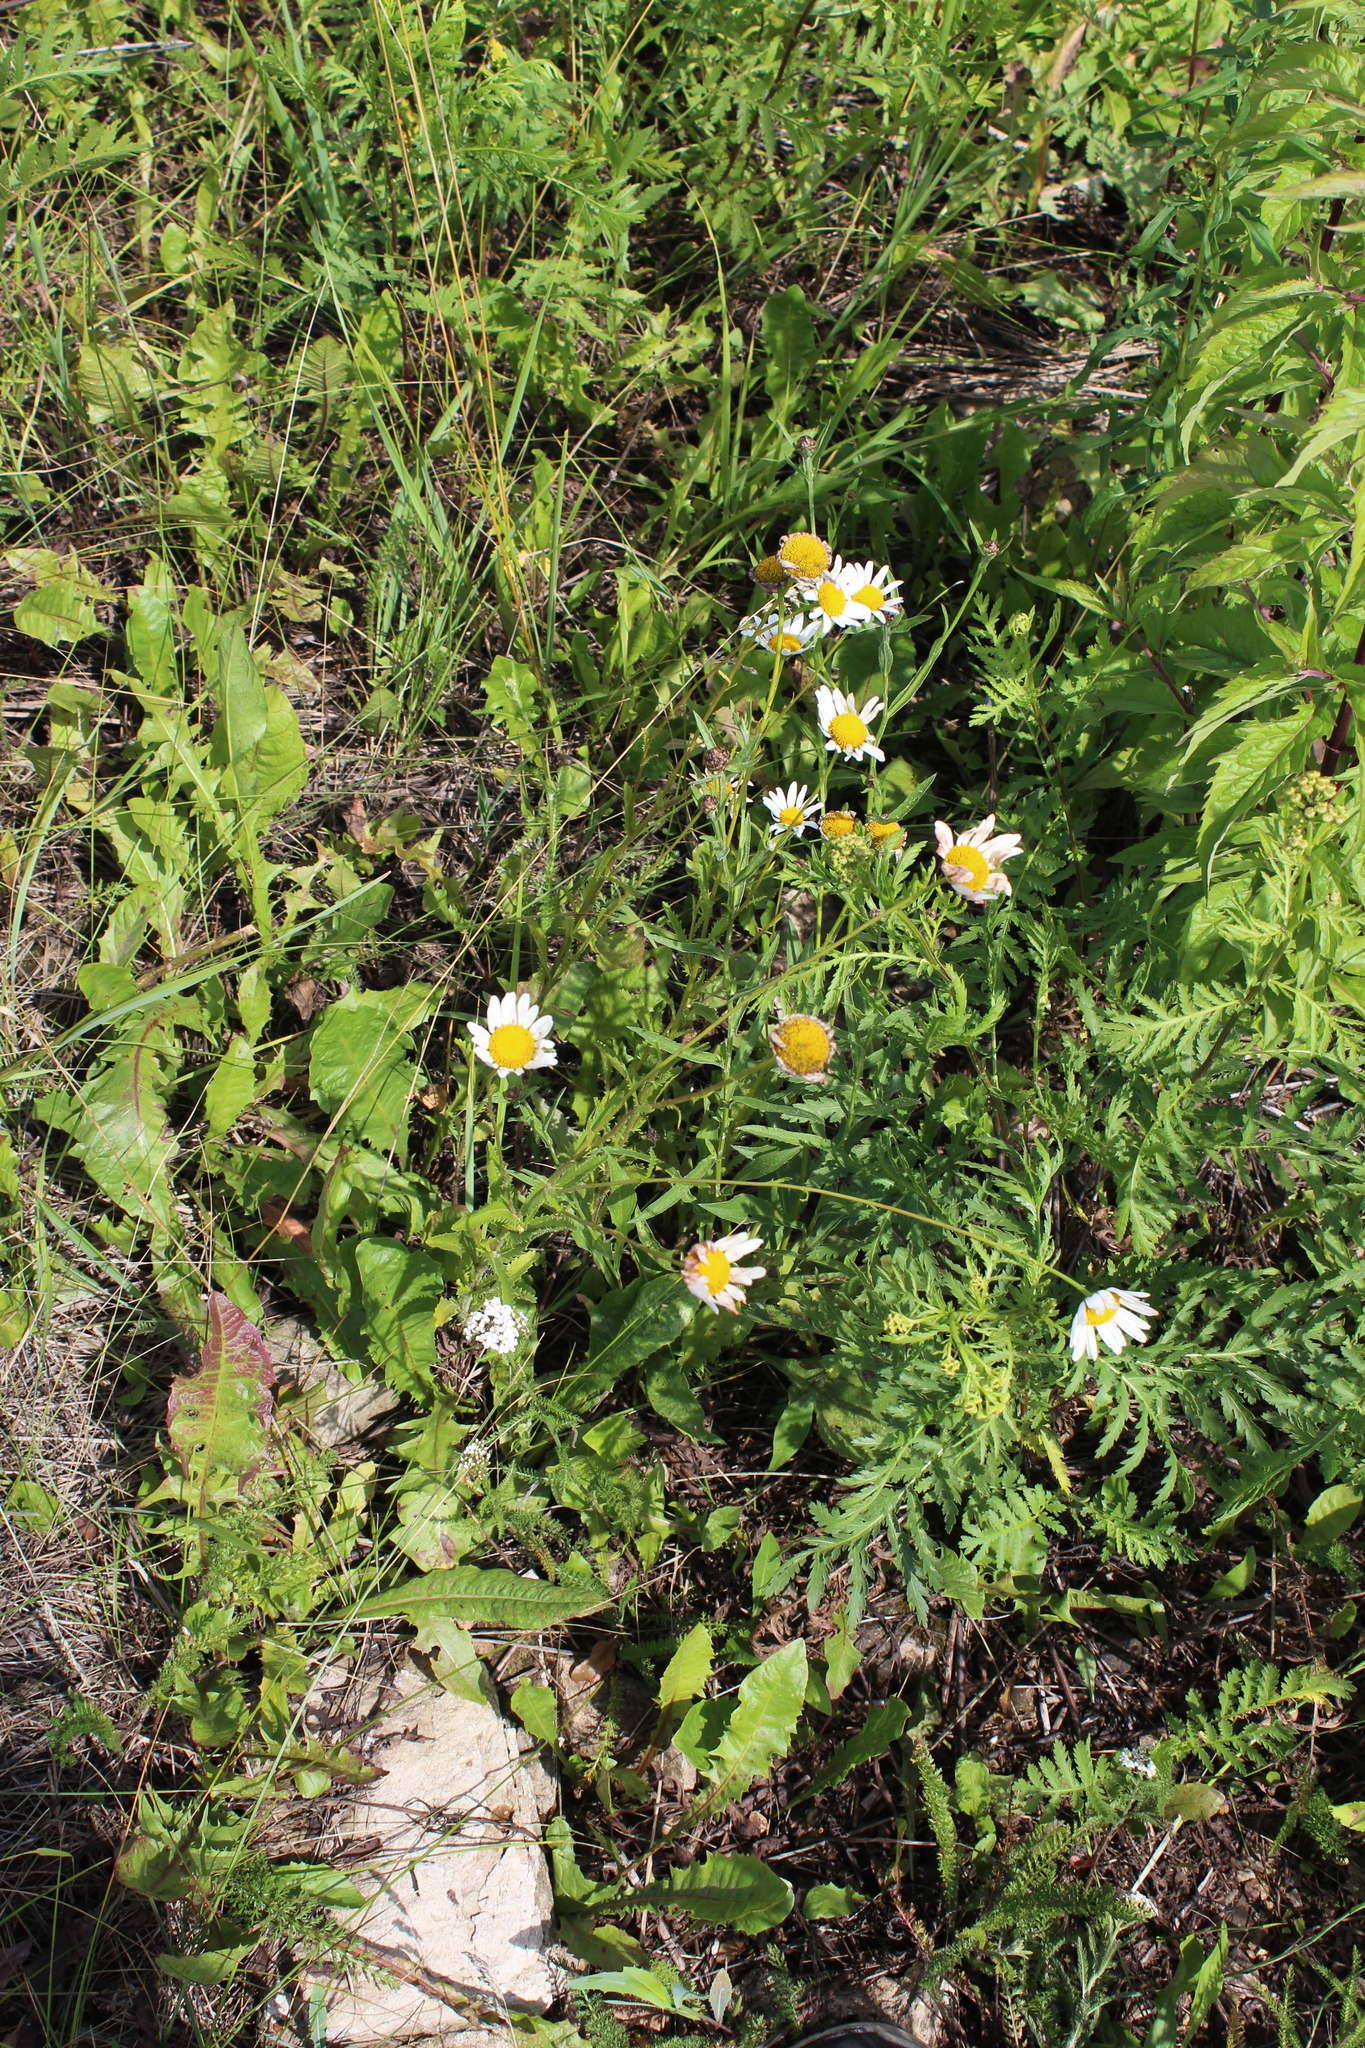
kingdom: Plantae
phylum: Tracheophyta
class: Magnoliopsida
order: Asterales
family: Asteraceae
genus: Leucanthemum
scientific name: Leucanthemum vulgare
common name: Oxeye daisy
